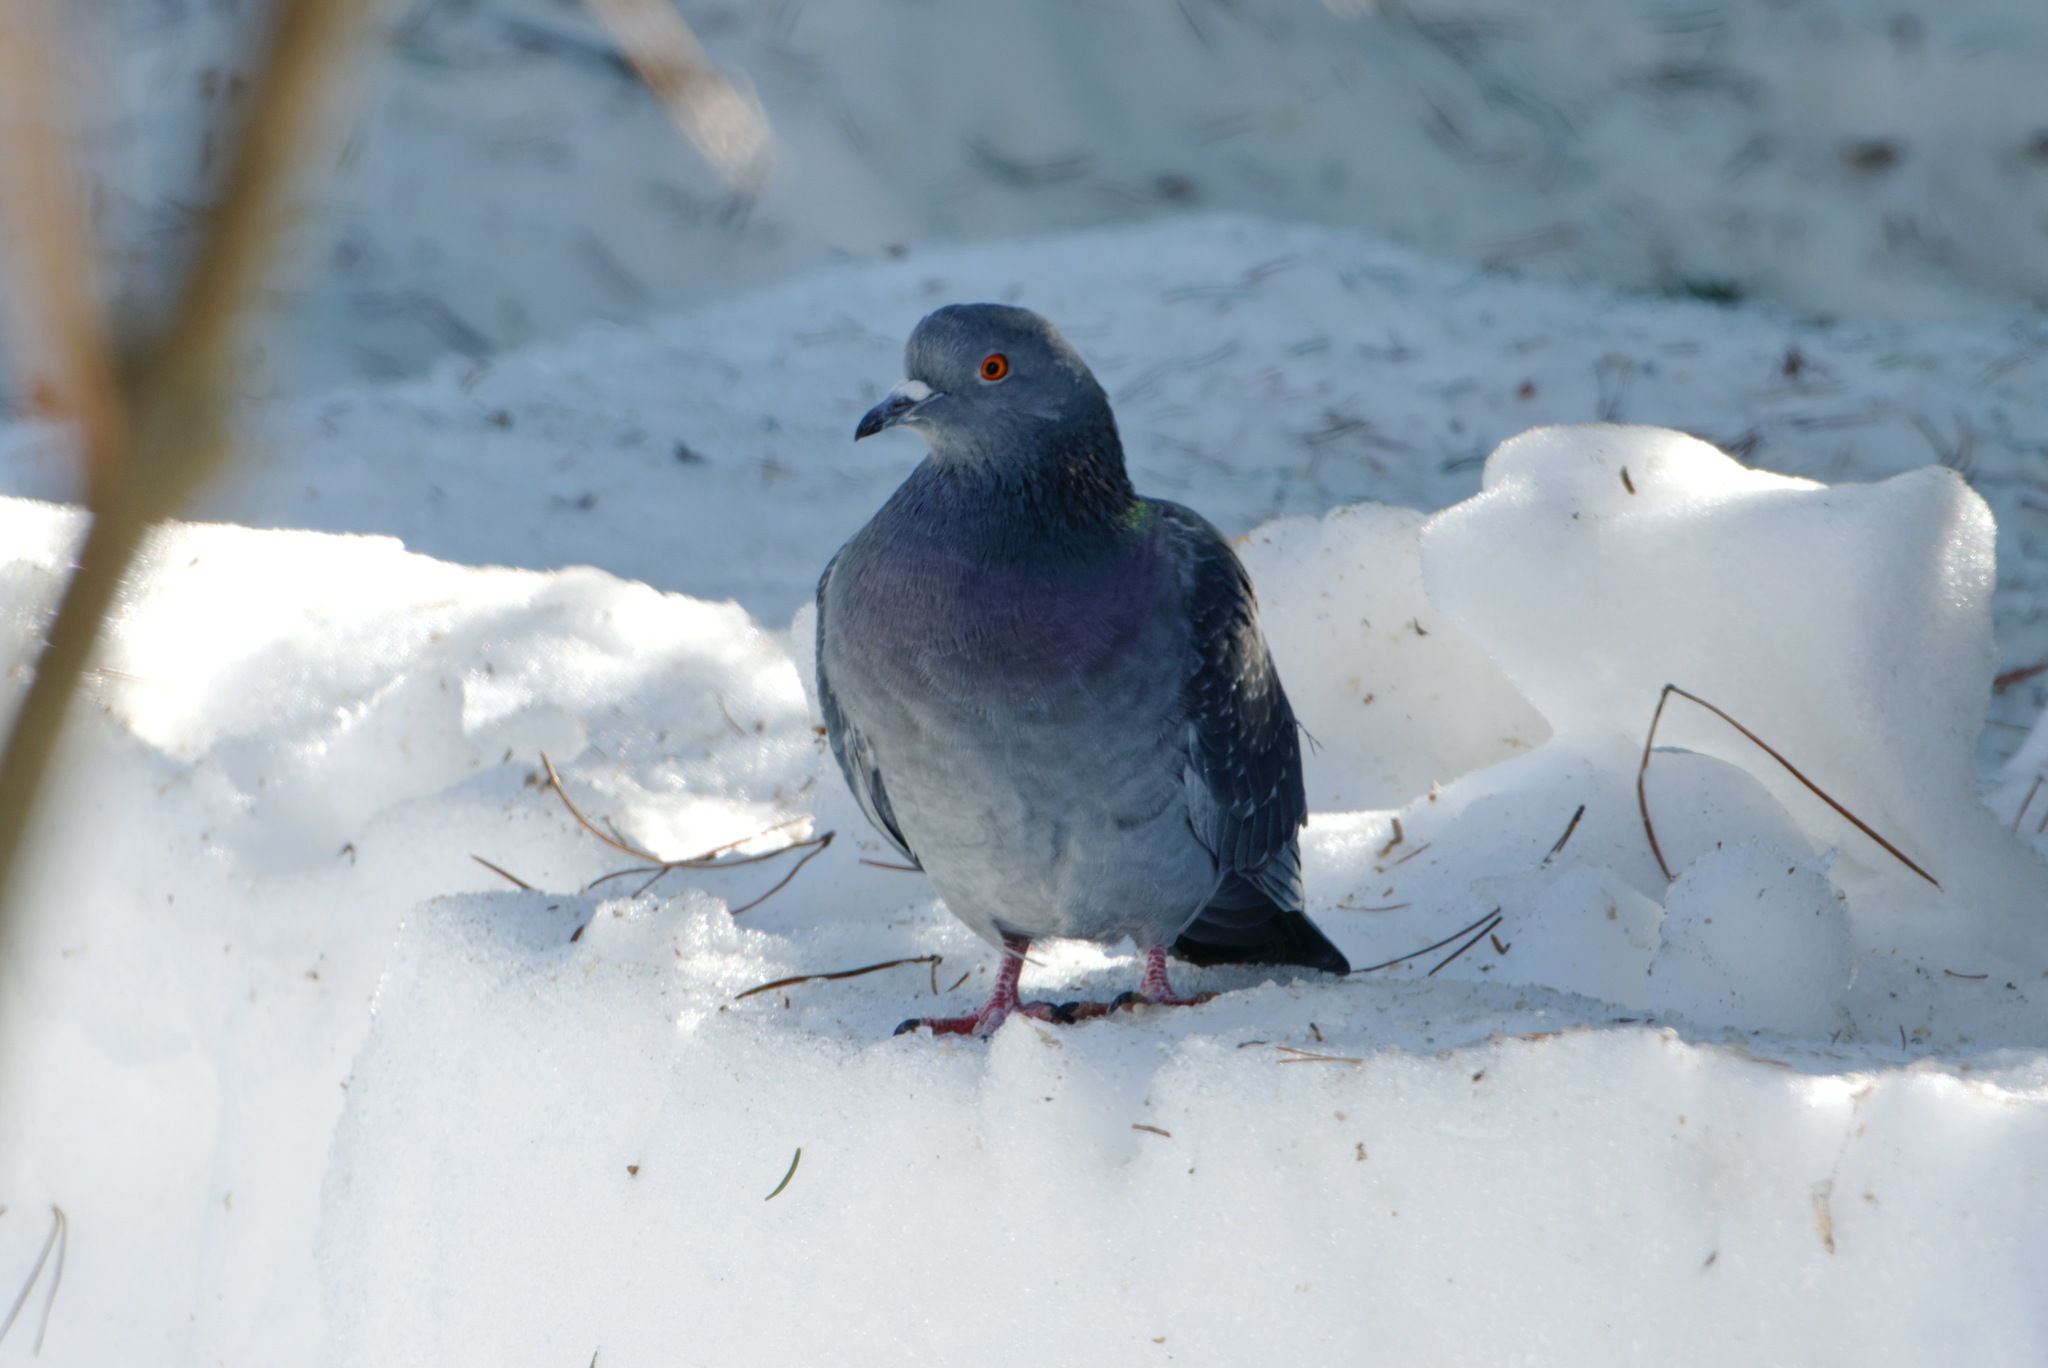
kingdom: Animalia
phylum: Chordata
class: Aves
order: Columbiformes
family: Columbidae
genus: Columba
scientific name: Columba livia
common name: Rock pigeon
